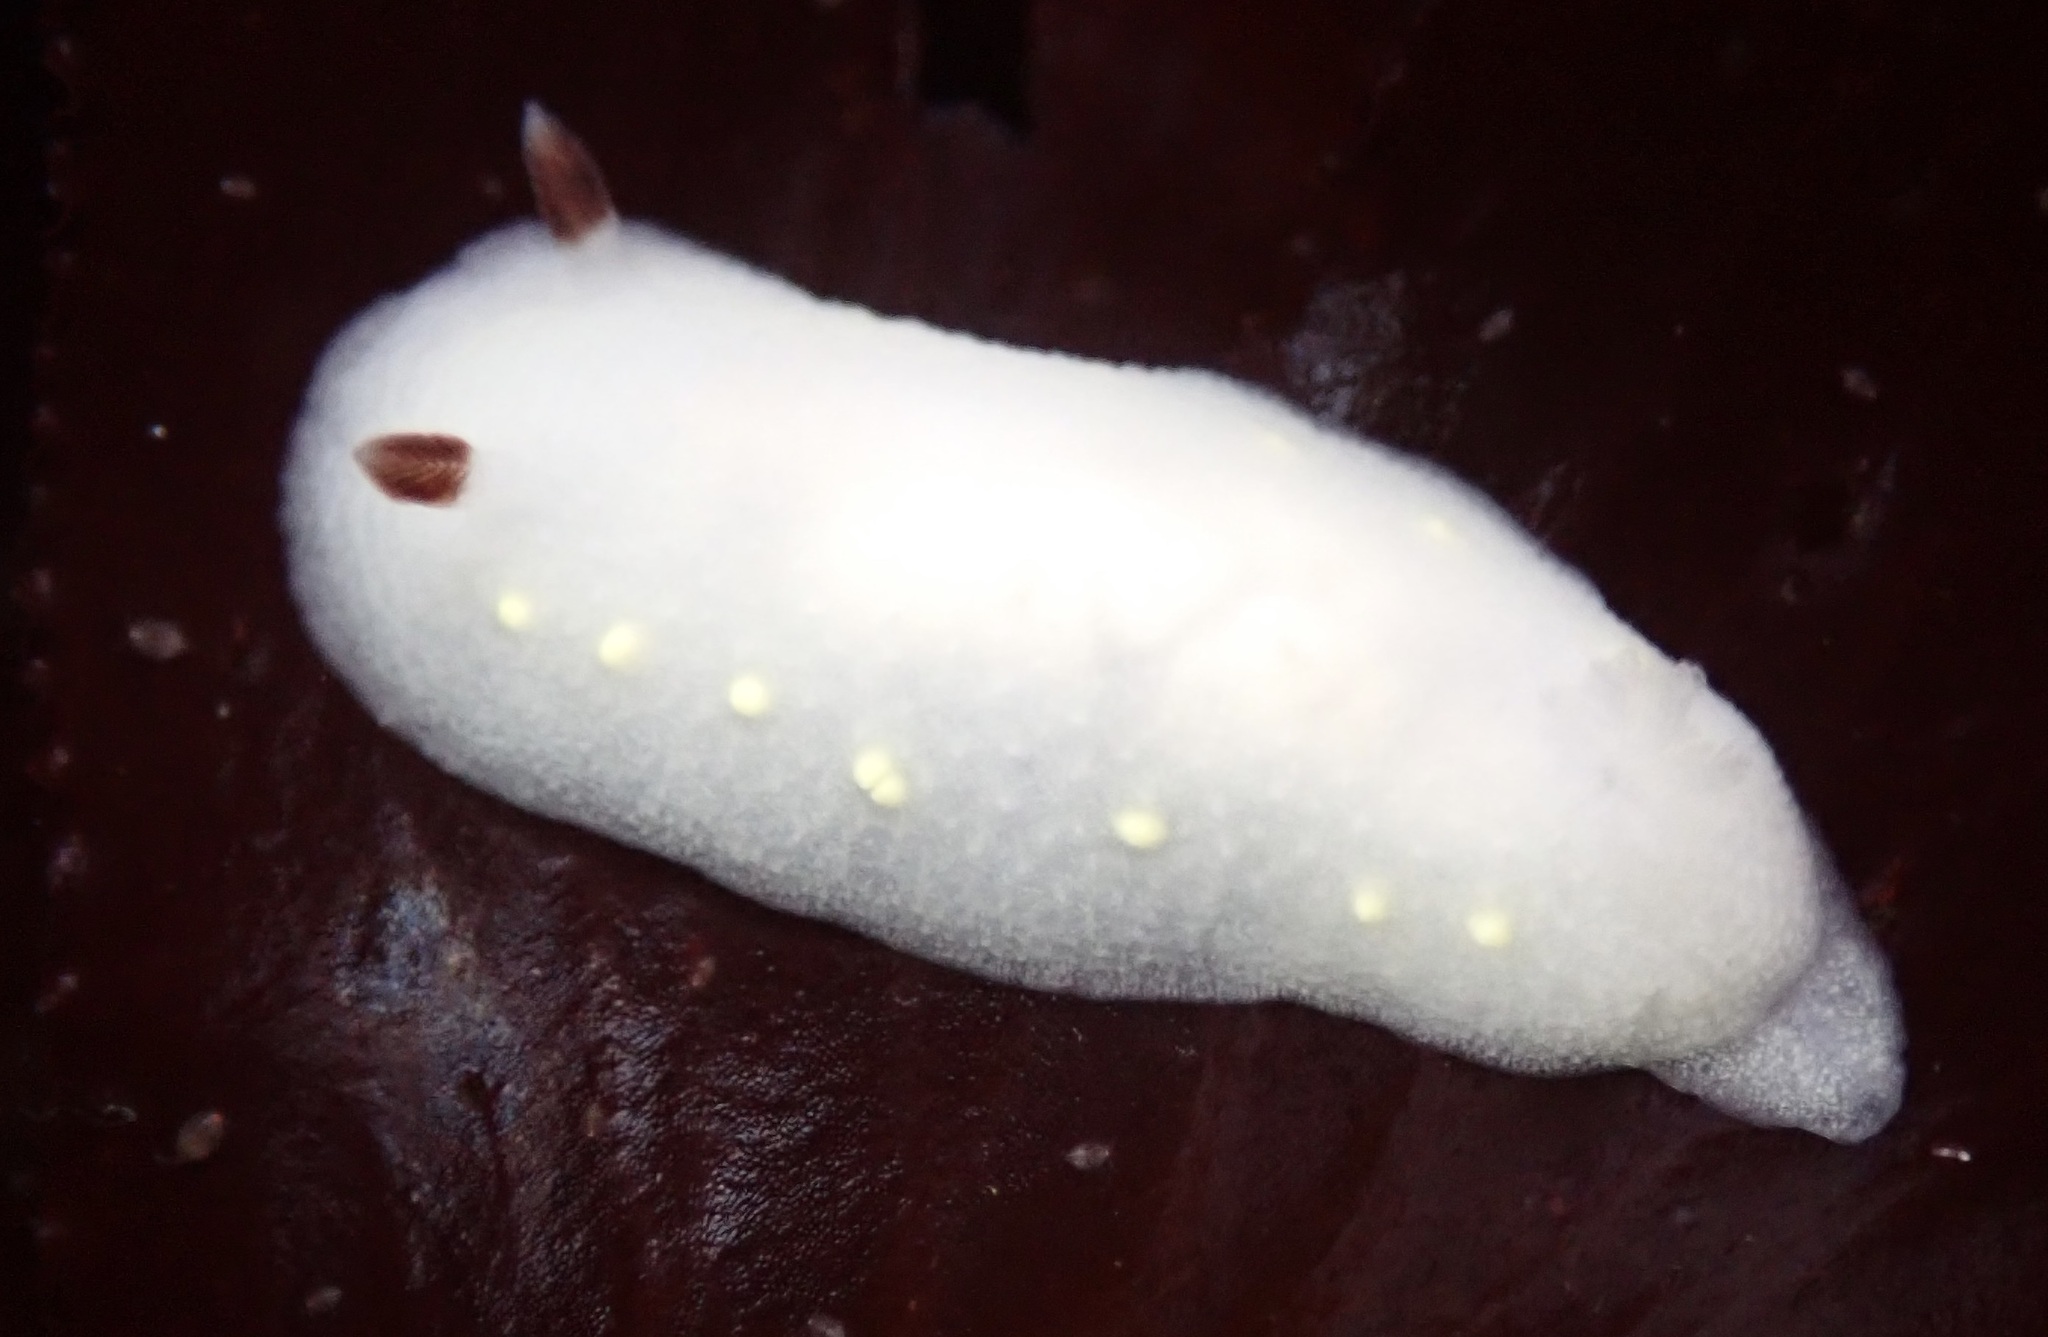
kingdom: Animalia
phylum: Mollusca
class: Gastropoda
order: Nudibranchia
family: Cadlinidae
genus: Cadlina
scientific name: Cadlina flavomaculata
